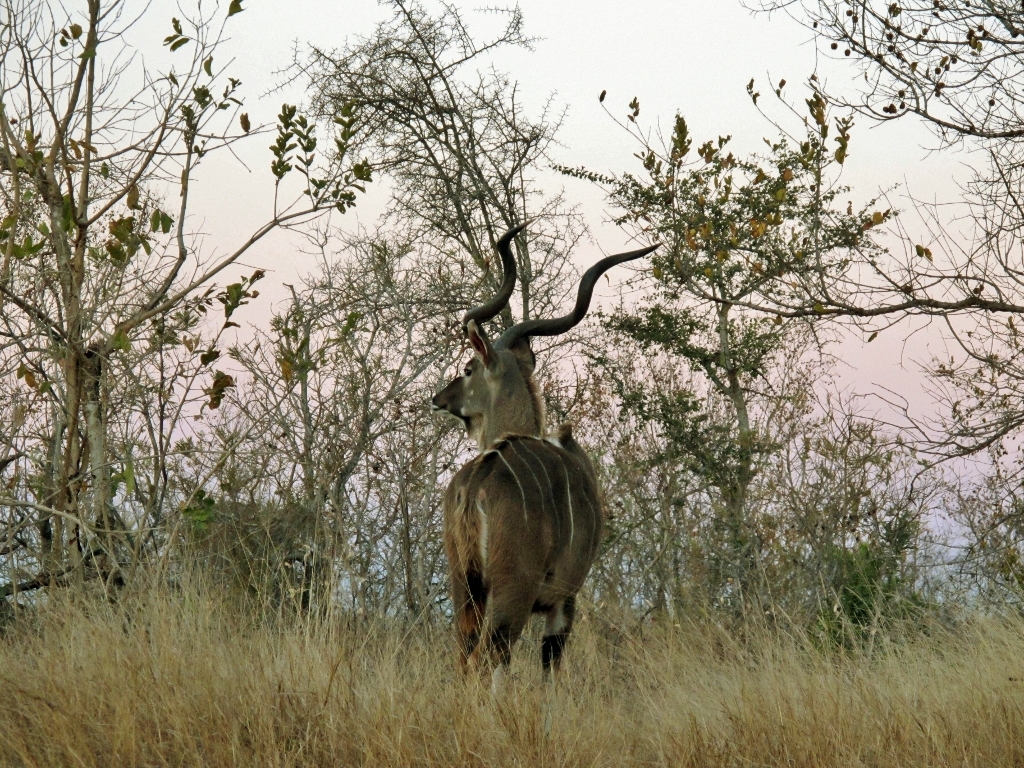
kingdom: Animalia
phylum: Chordata
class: Mammalia
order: Artiodactyla
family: Bovidae
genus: Tragelaphus
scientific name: Tragelaphus strepsiceros
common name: Greater kudu
